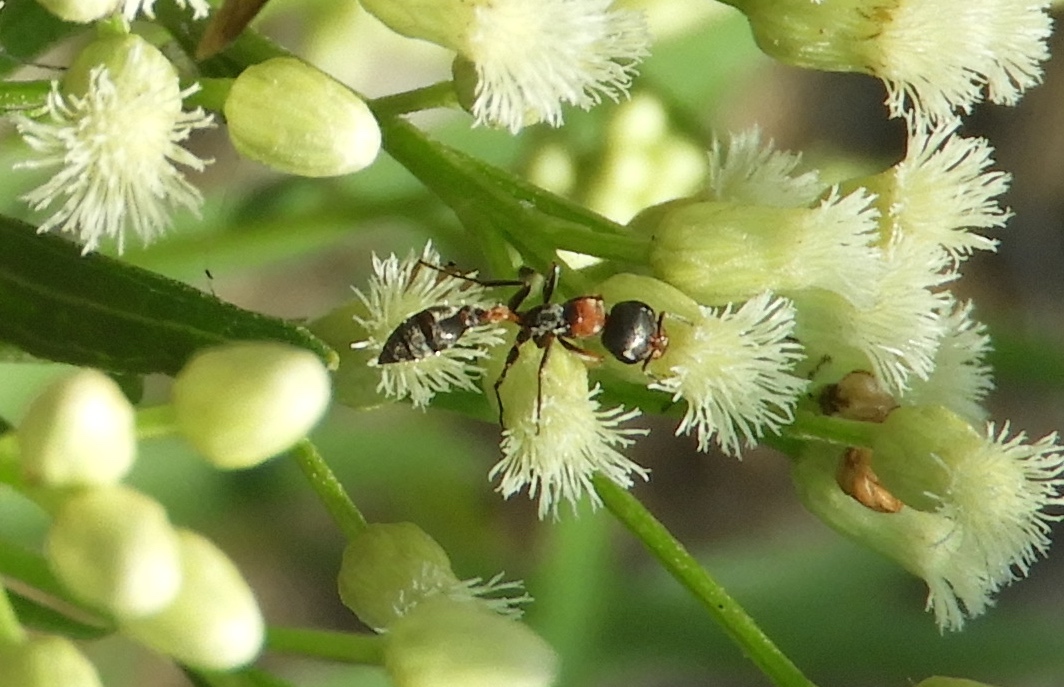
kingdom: Animalia
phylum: Arthropoda
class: Insecta
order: Hymenoptera
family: Formicidae
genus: Pseudomyrmex
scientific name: Pseudomyrmex gracilis
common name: Graceful twig ant
